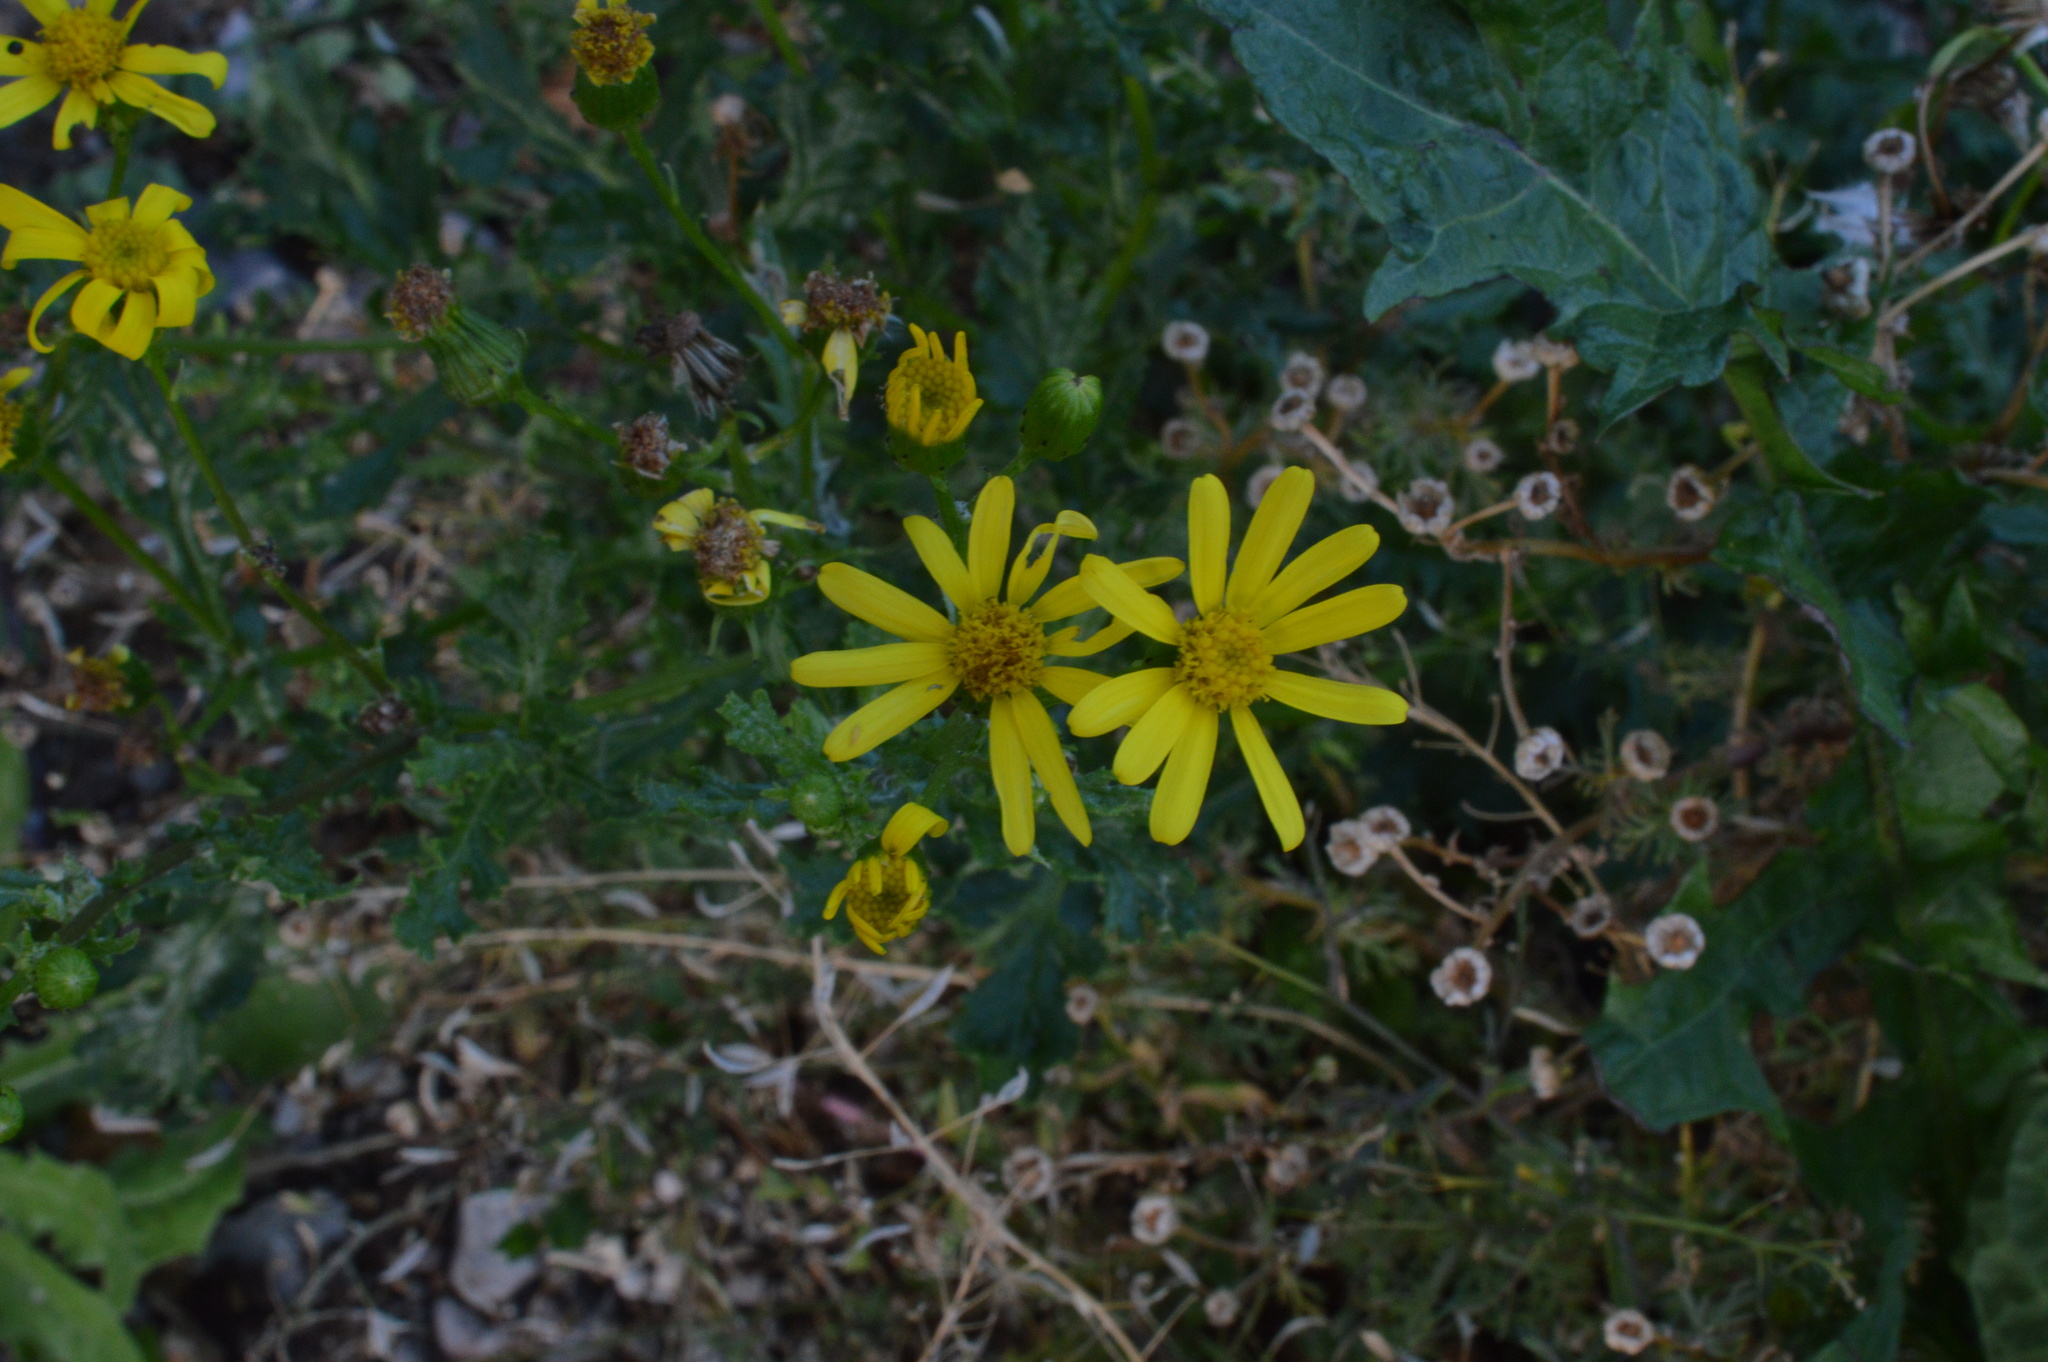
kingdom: Plantae
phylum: Tracheophyta
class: Magnoliopsida
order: Asterales
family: Asteraceae
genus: Jacobaea
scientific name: Jacobaea vulgaris
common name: Stinking willie
